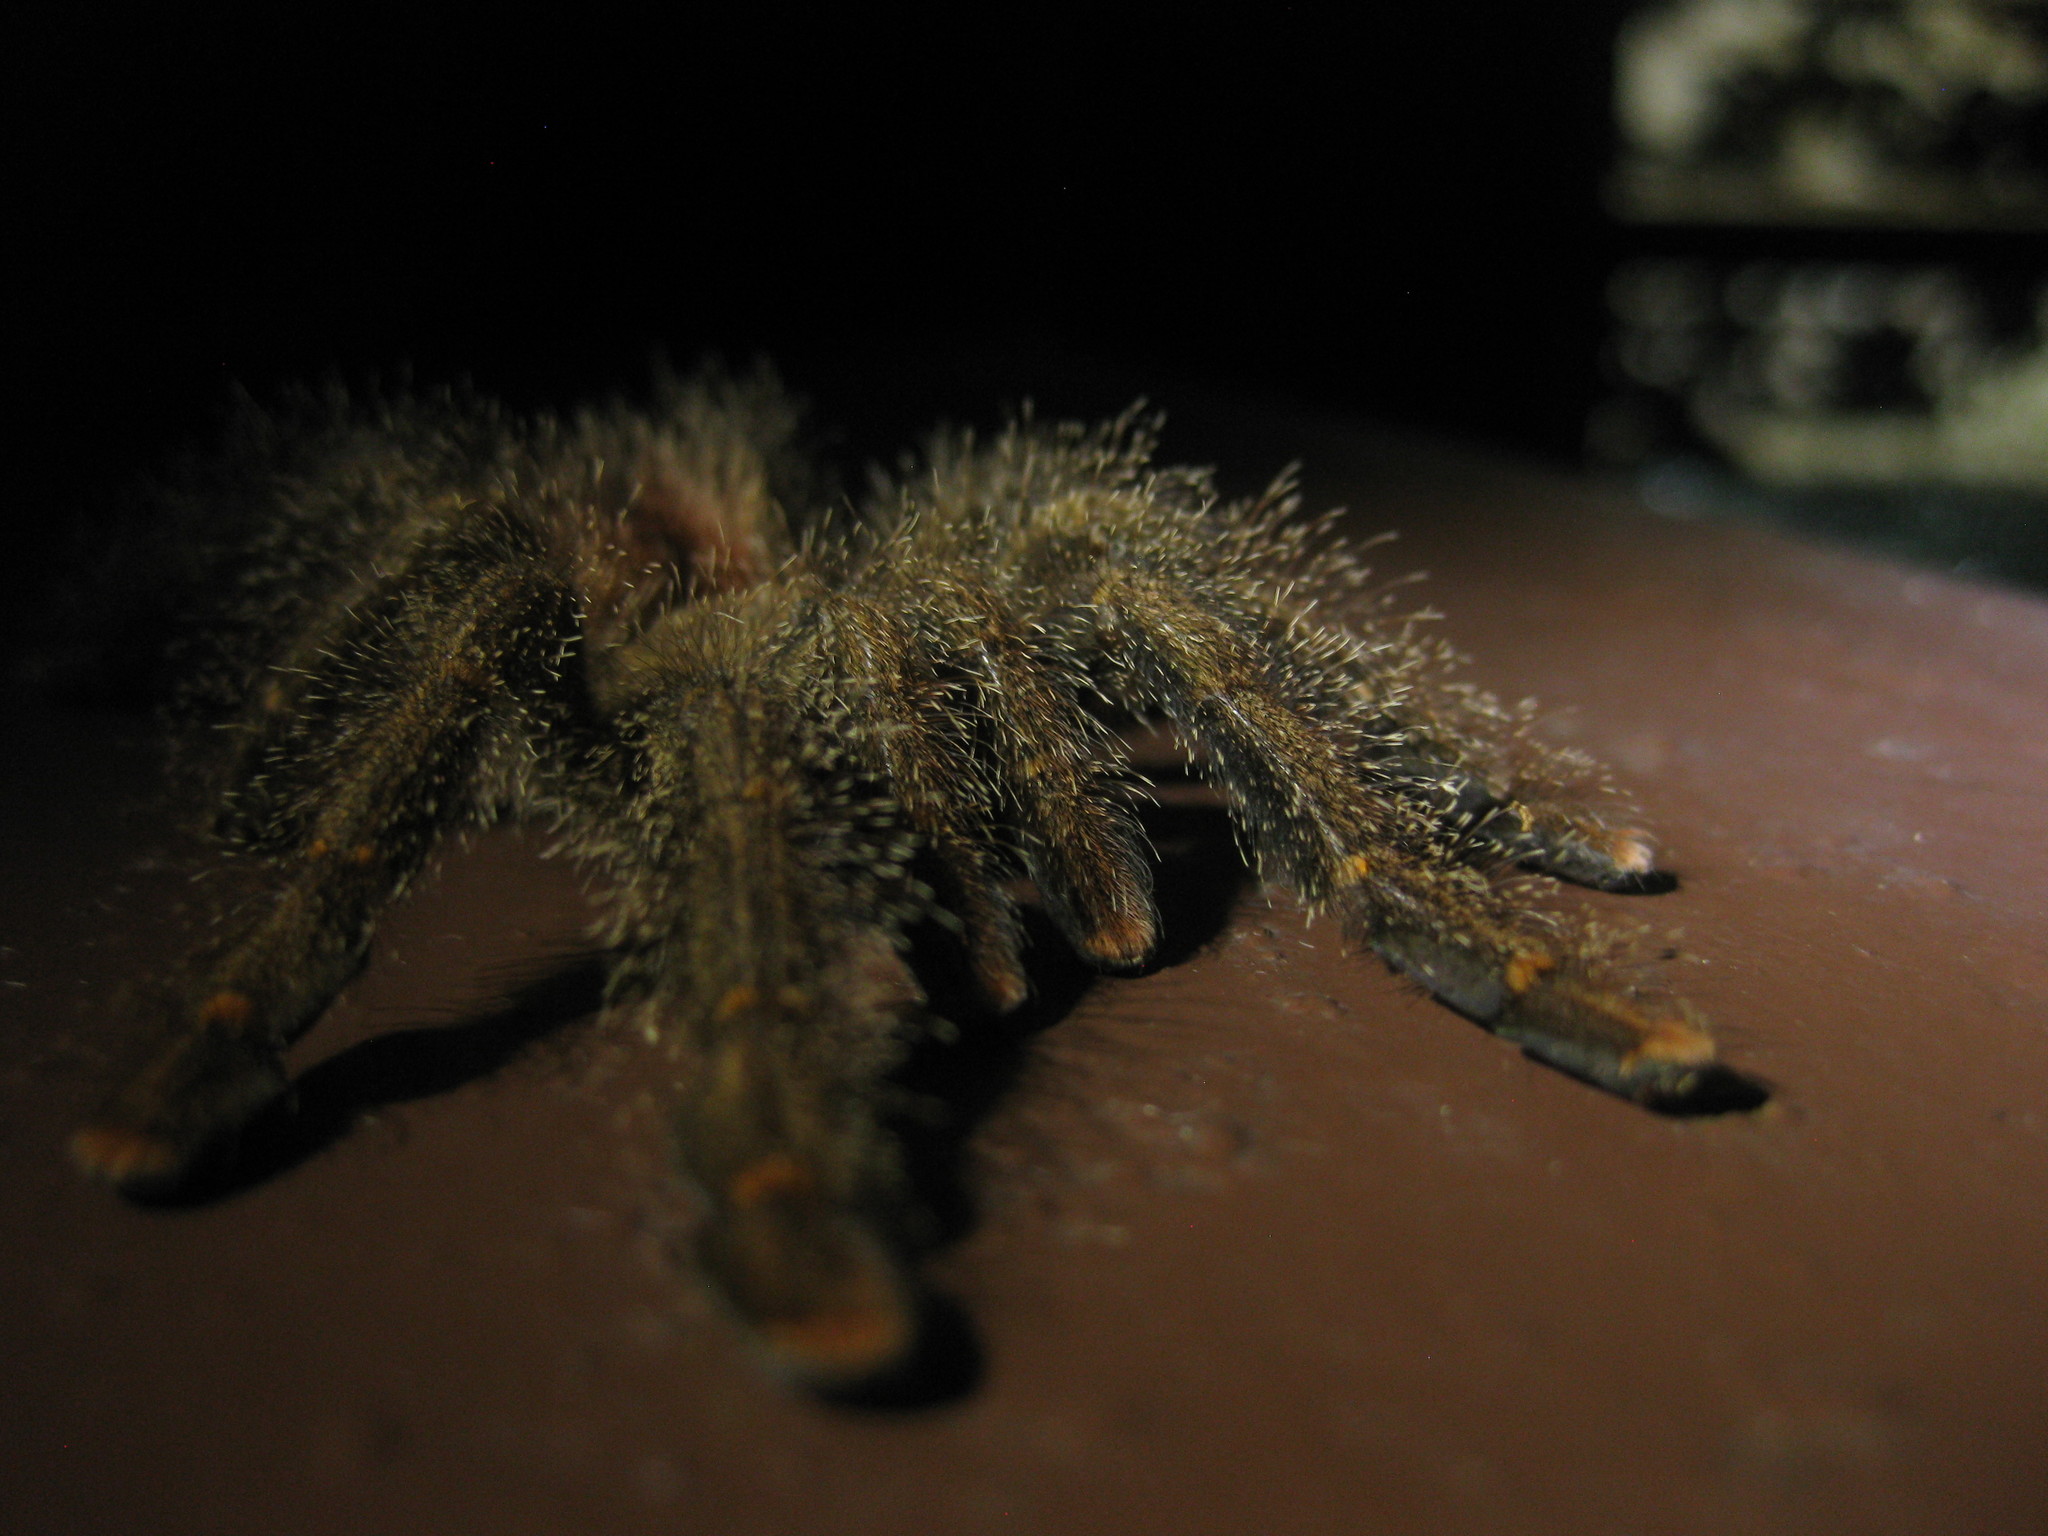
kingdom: Animalia
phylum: Arthropoda
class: Arachnida
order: Araneae
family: Theraphosidae
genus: Avicularia
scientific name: Avicularia juruensis
